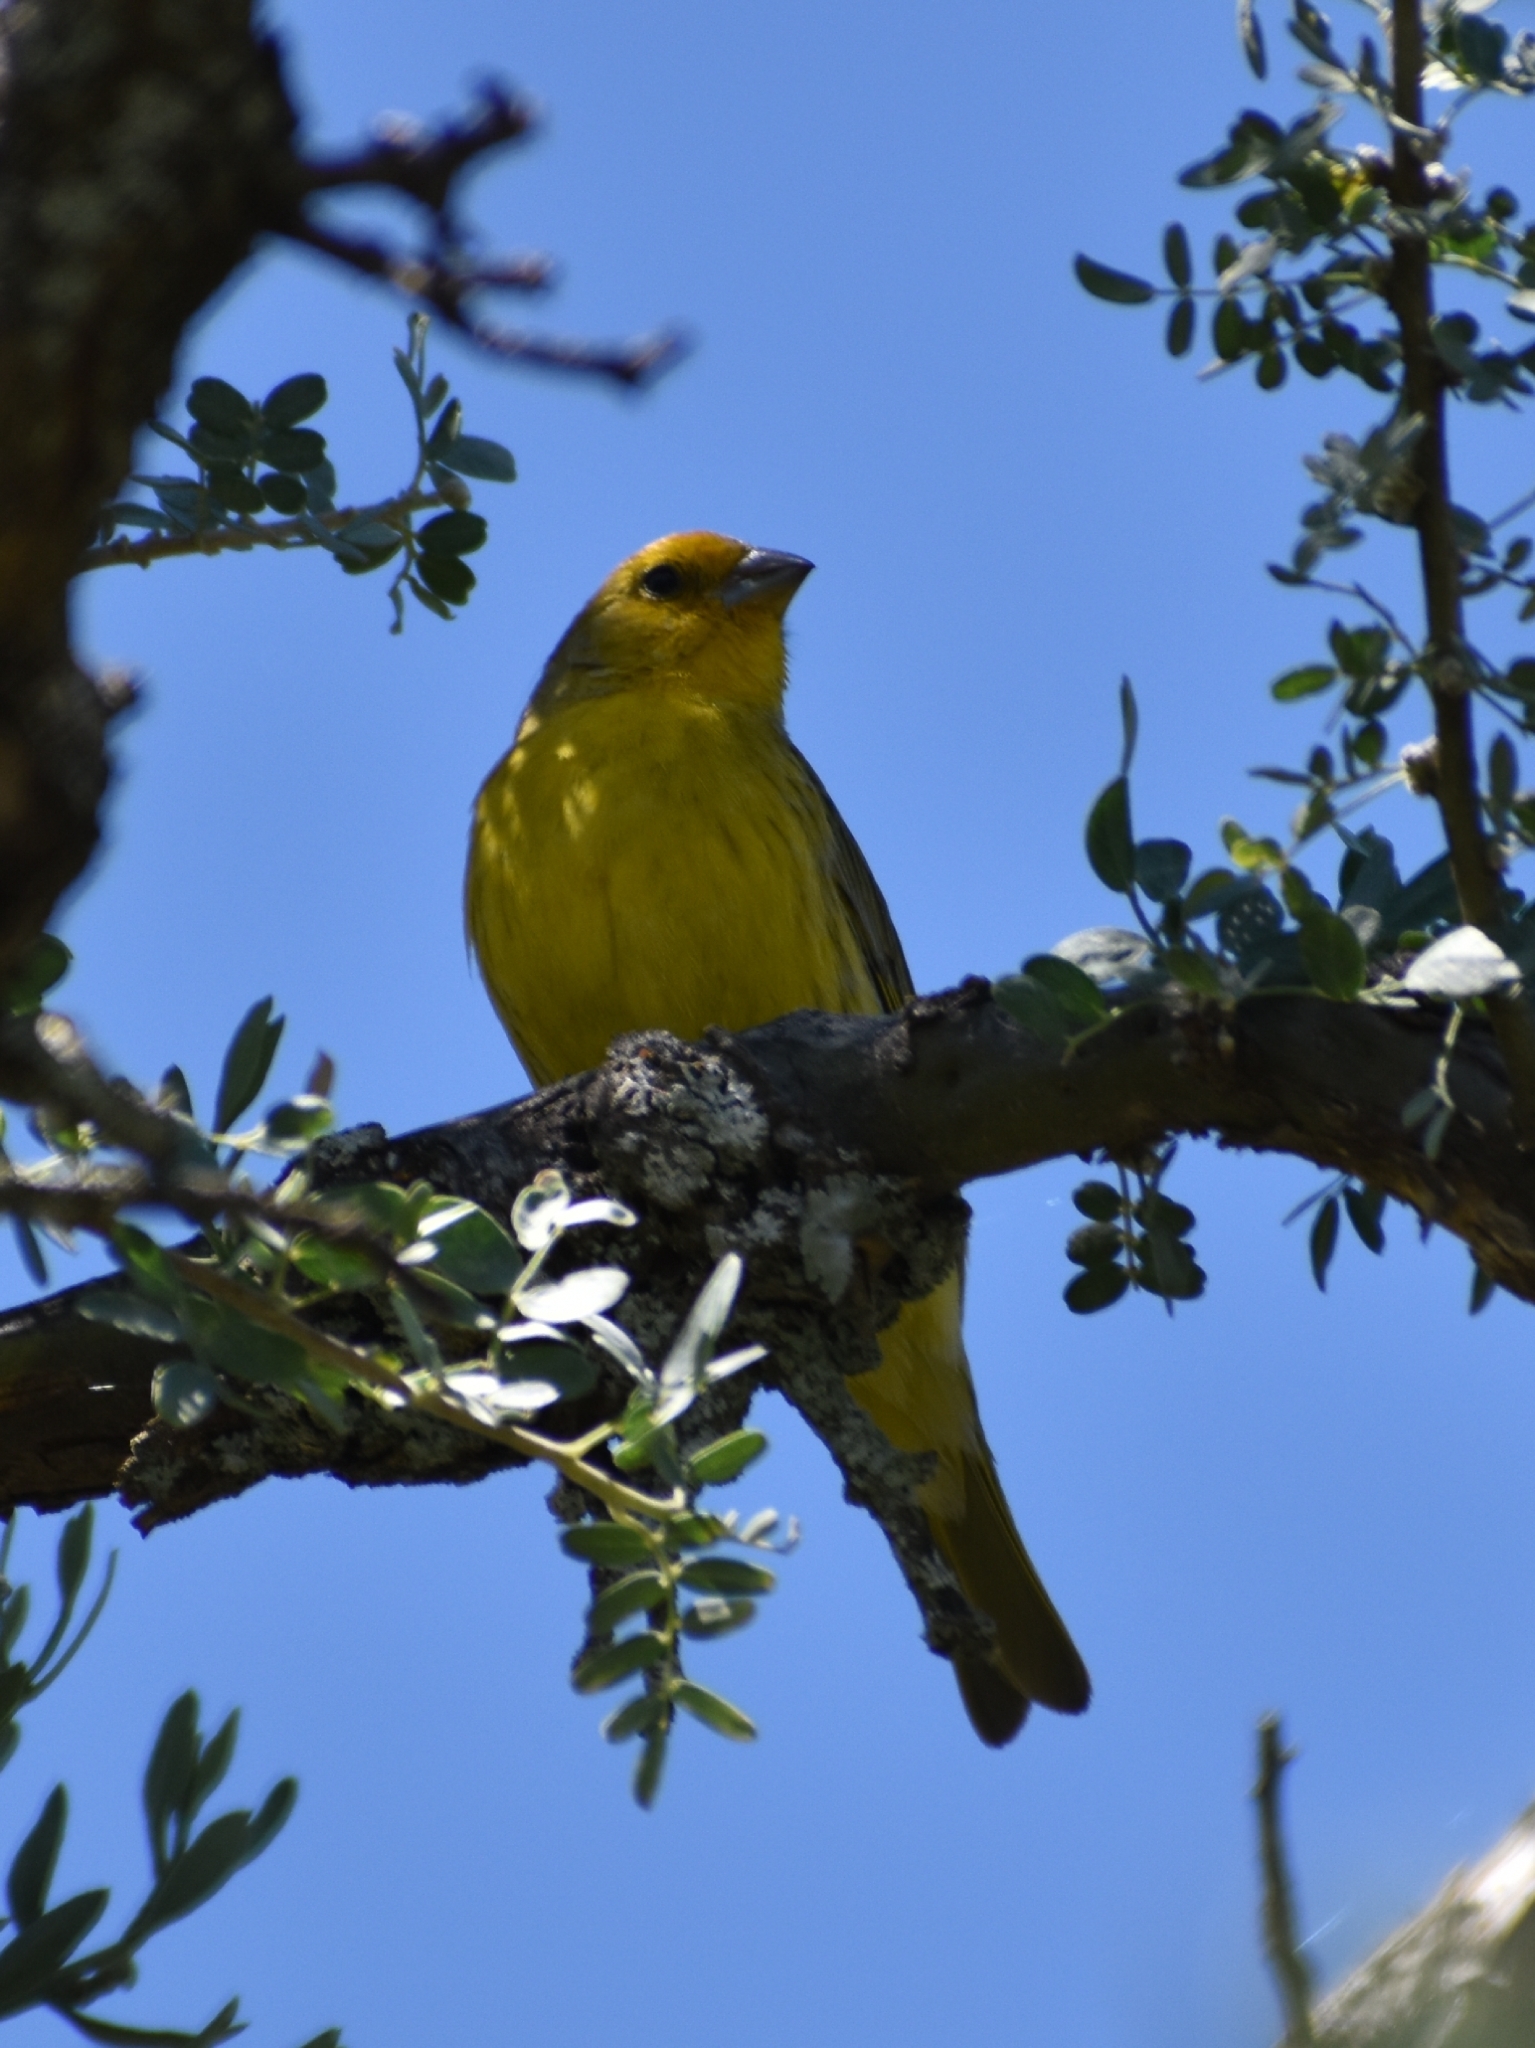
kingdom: Animalia
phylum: Chordata
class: Aves
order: Passeriformes
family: Thraupidae
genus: Sicalis
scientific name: Sicalis flaveola
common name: Saffron finch
